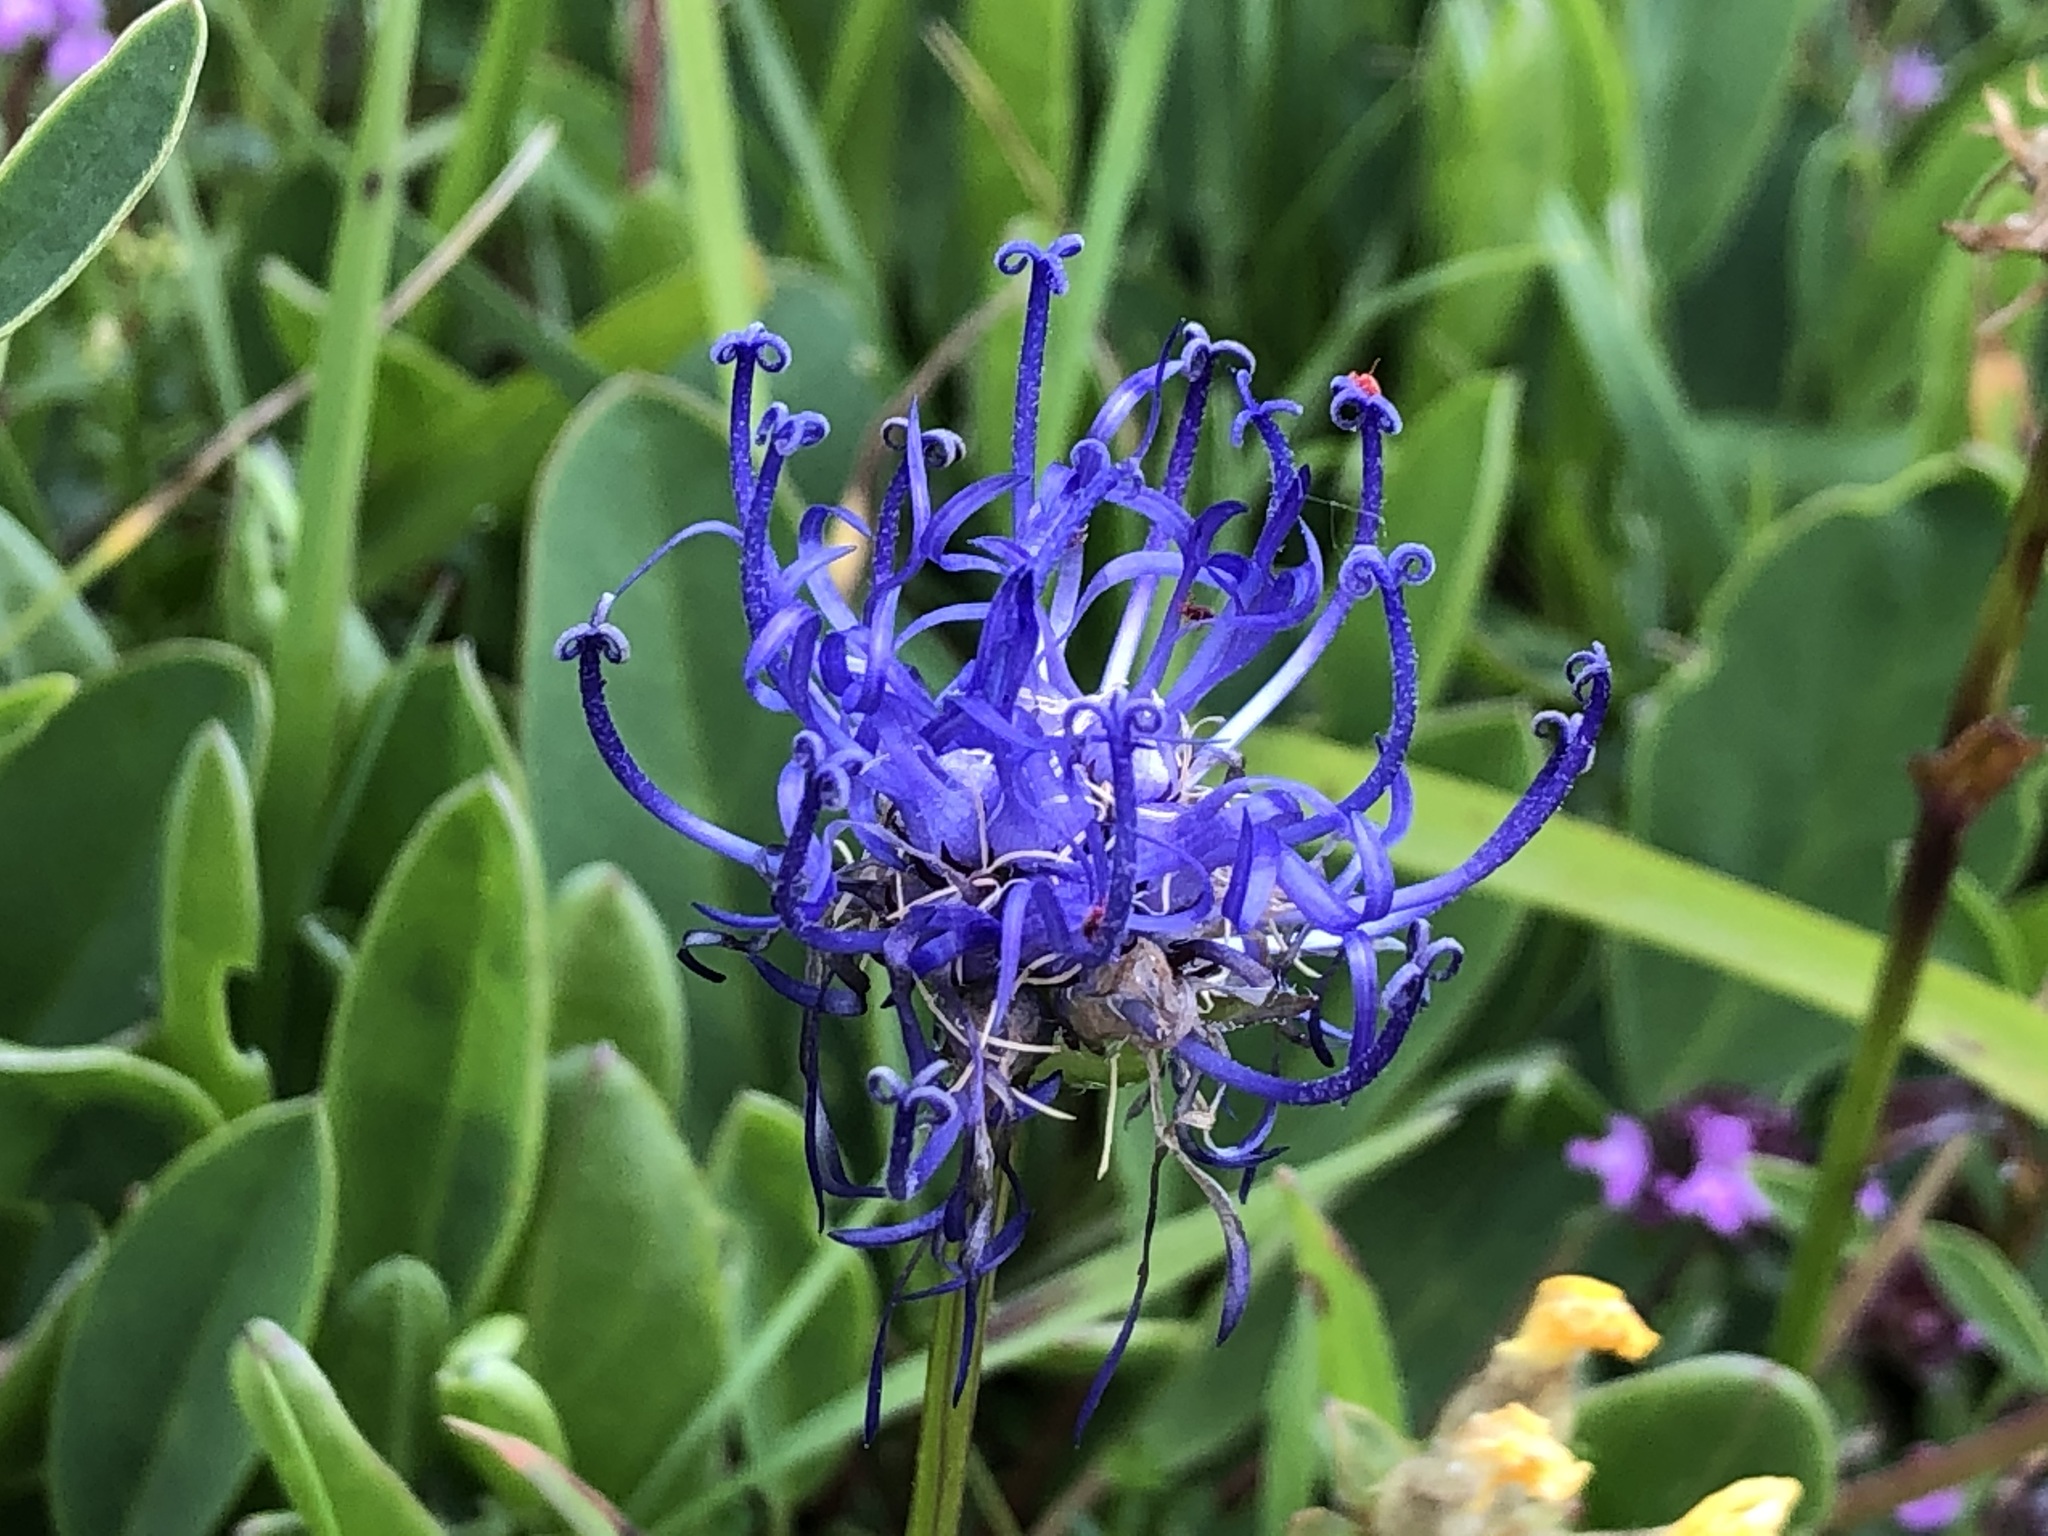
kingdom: Plantae
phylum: Tracheophyta
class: Magnoliopsida
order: Asterales
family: Campanulaceae
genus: Phyteuma
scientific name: Phyteuma orbiculare
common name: Round-headed rampion
